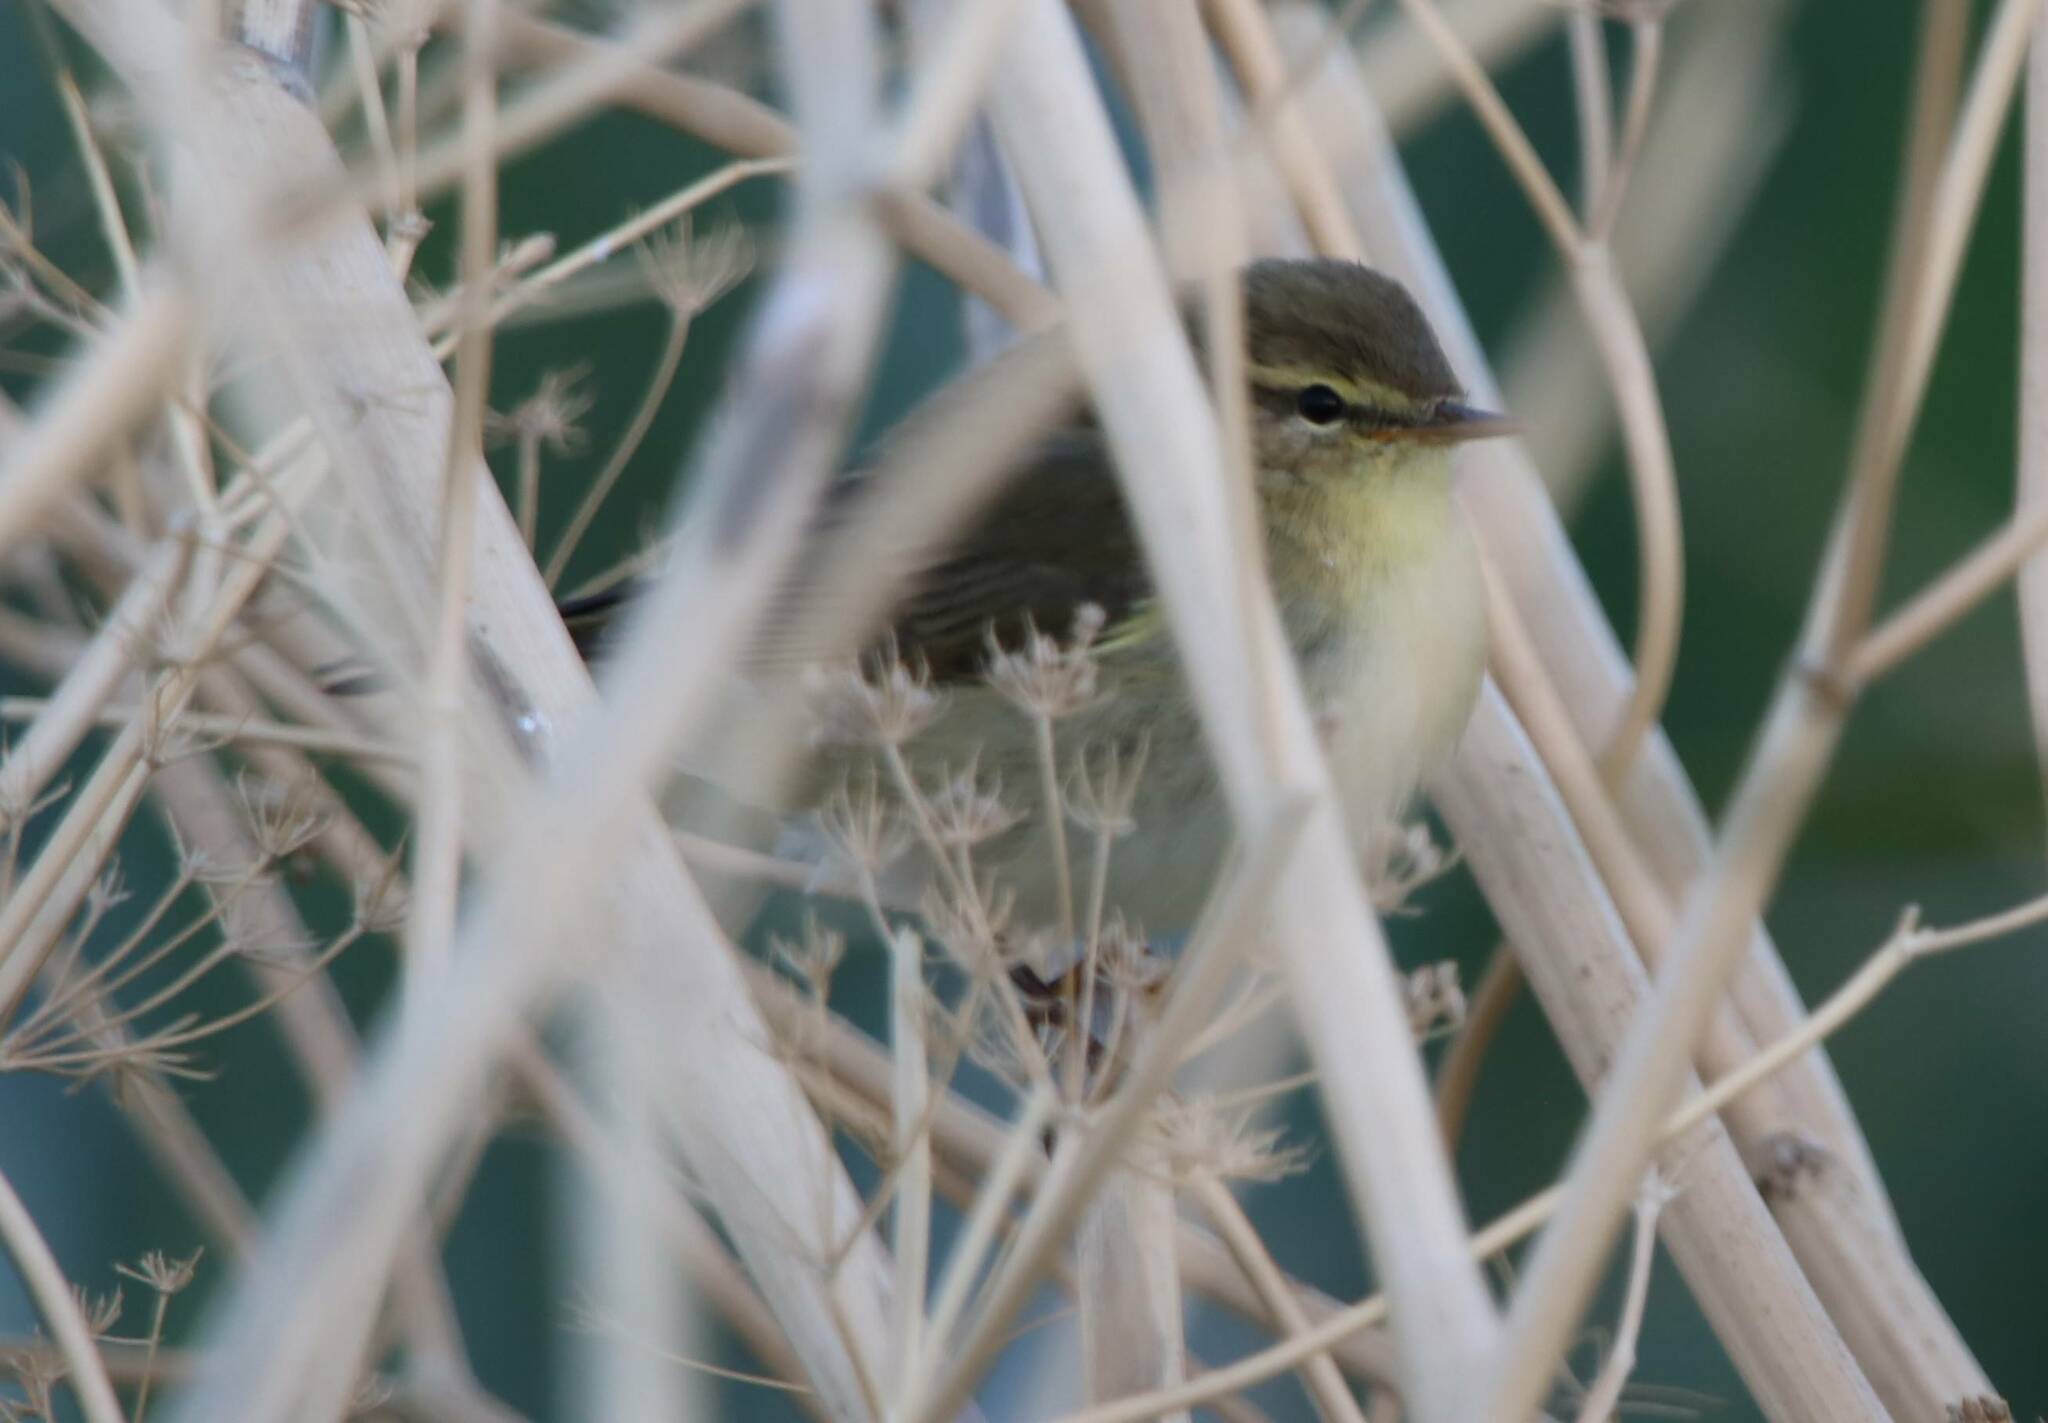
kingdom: Animalia
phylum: Chordata
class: Aves
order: Passeriformes
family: Phylloscopidae
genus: Phylloscopus
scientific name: Phylloscopus trochilus
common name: Willow warbler
